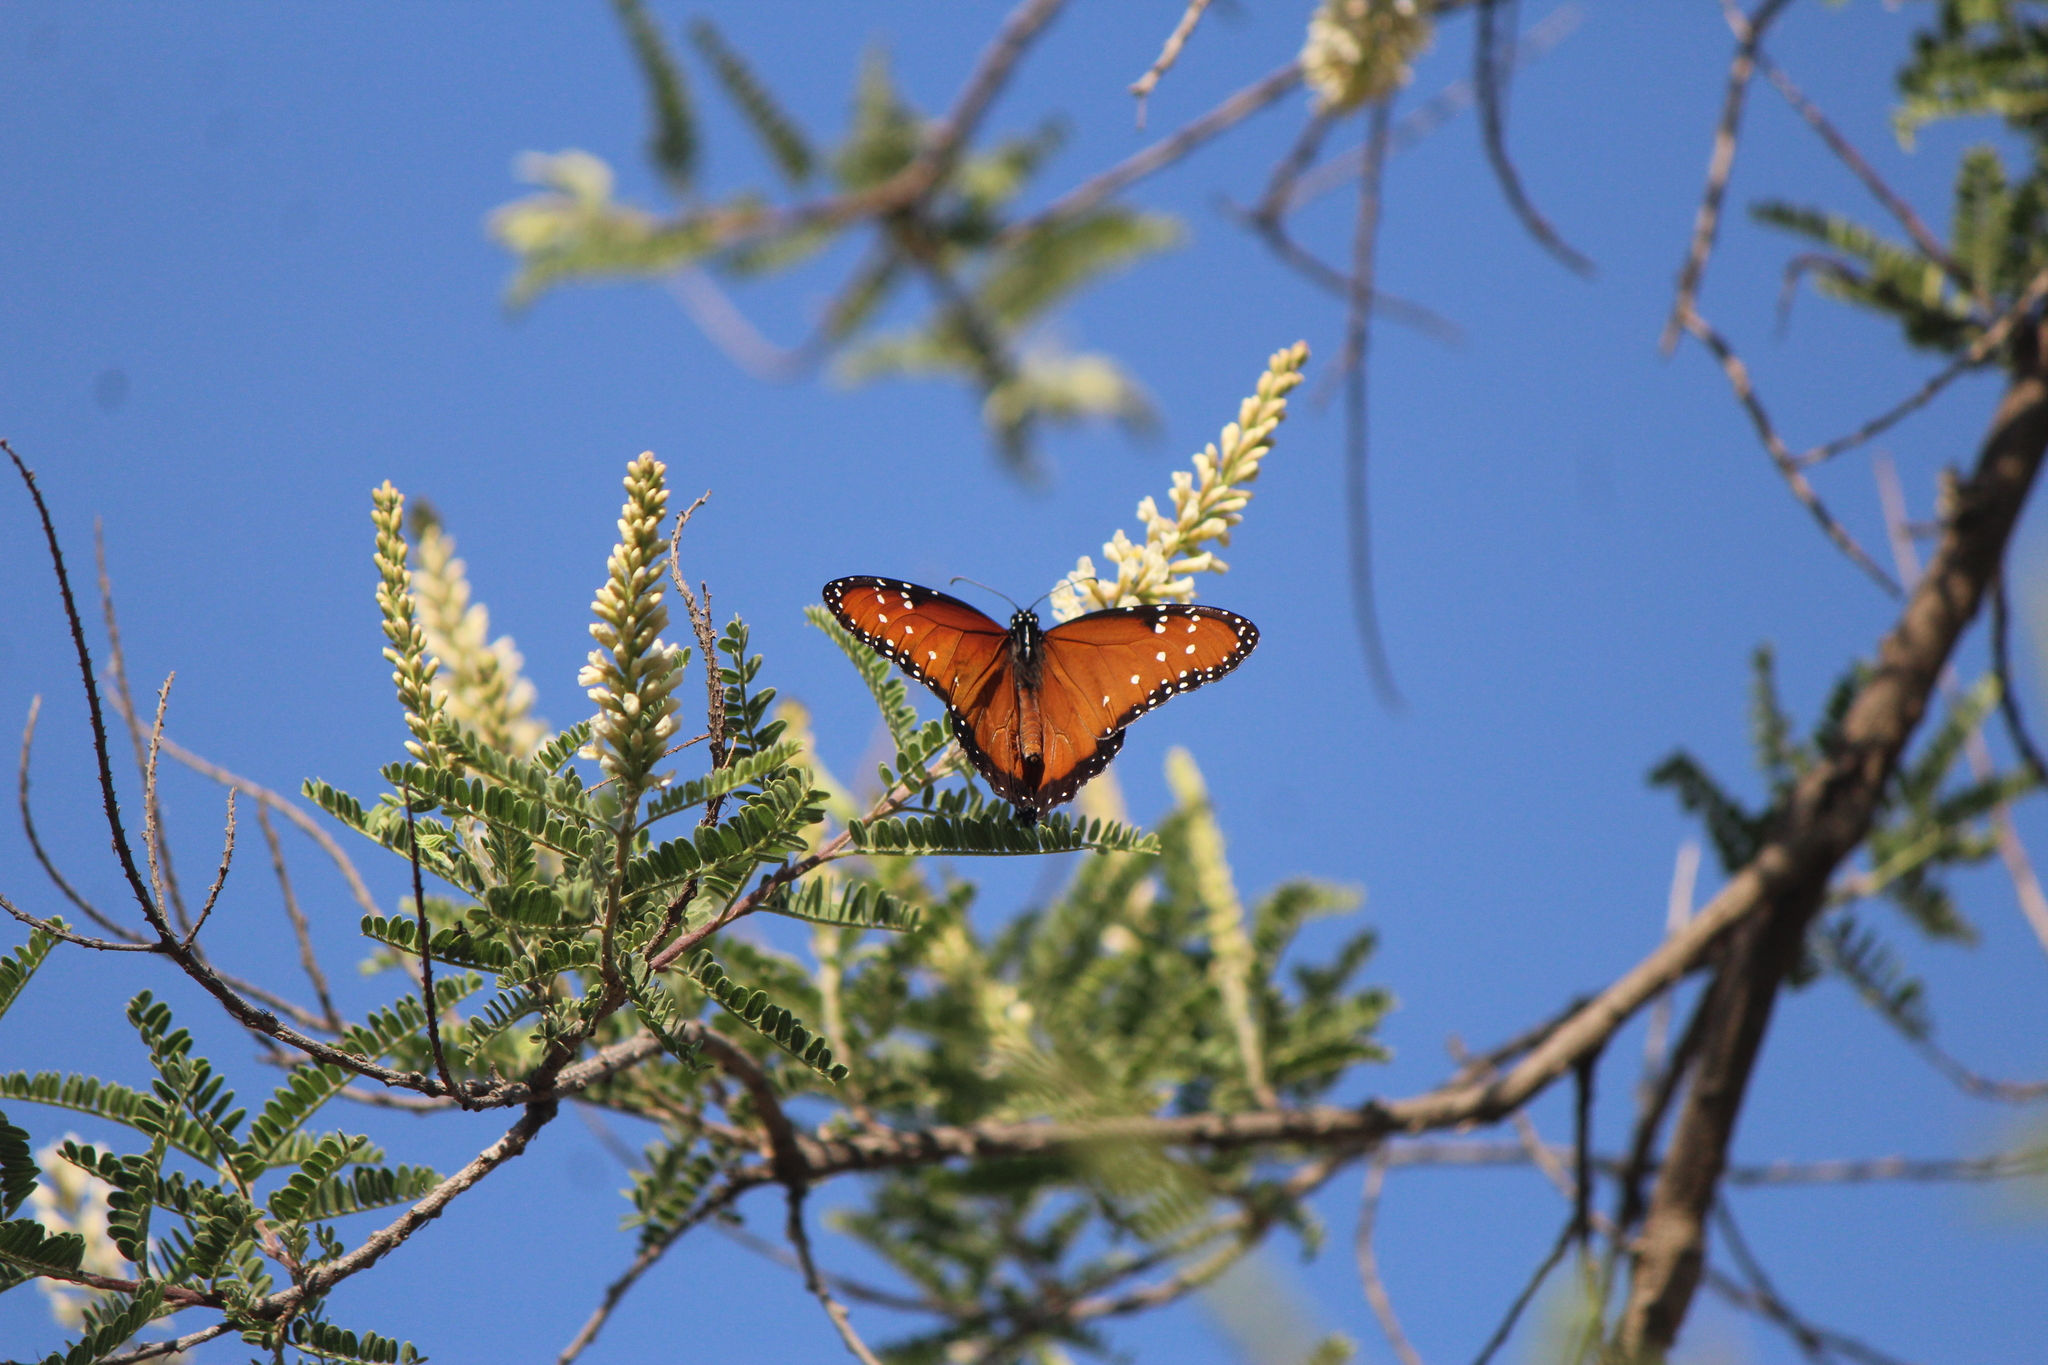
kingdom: Animalia
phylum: Arthropoda
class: Insecta
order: Lepidoptera
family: Nymphalidae
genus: Danaus
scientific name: Danaus gilippus
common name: Queen
